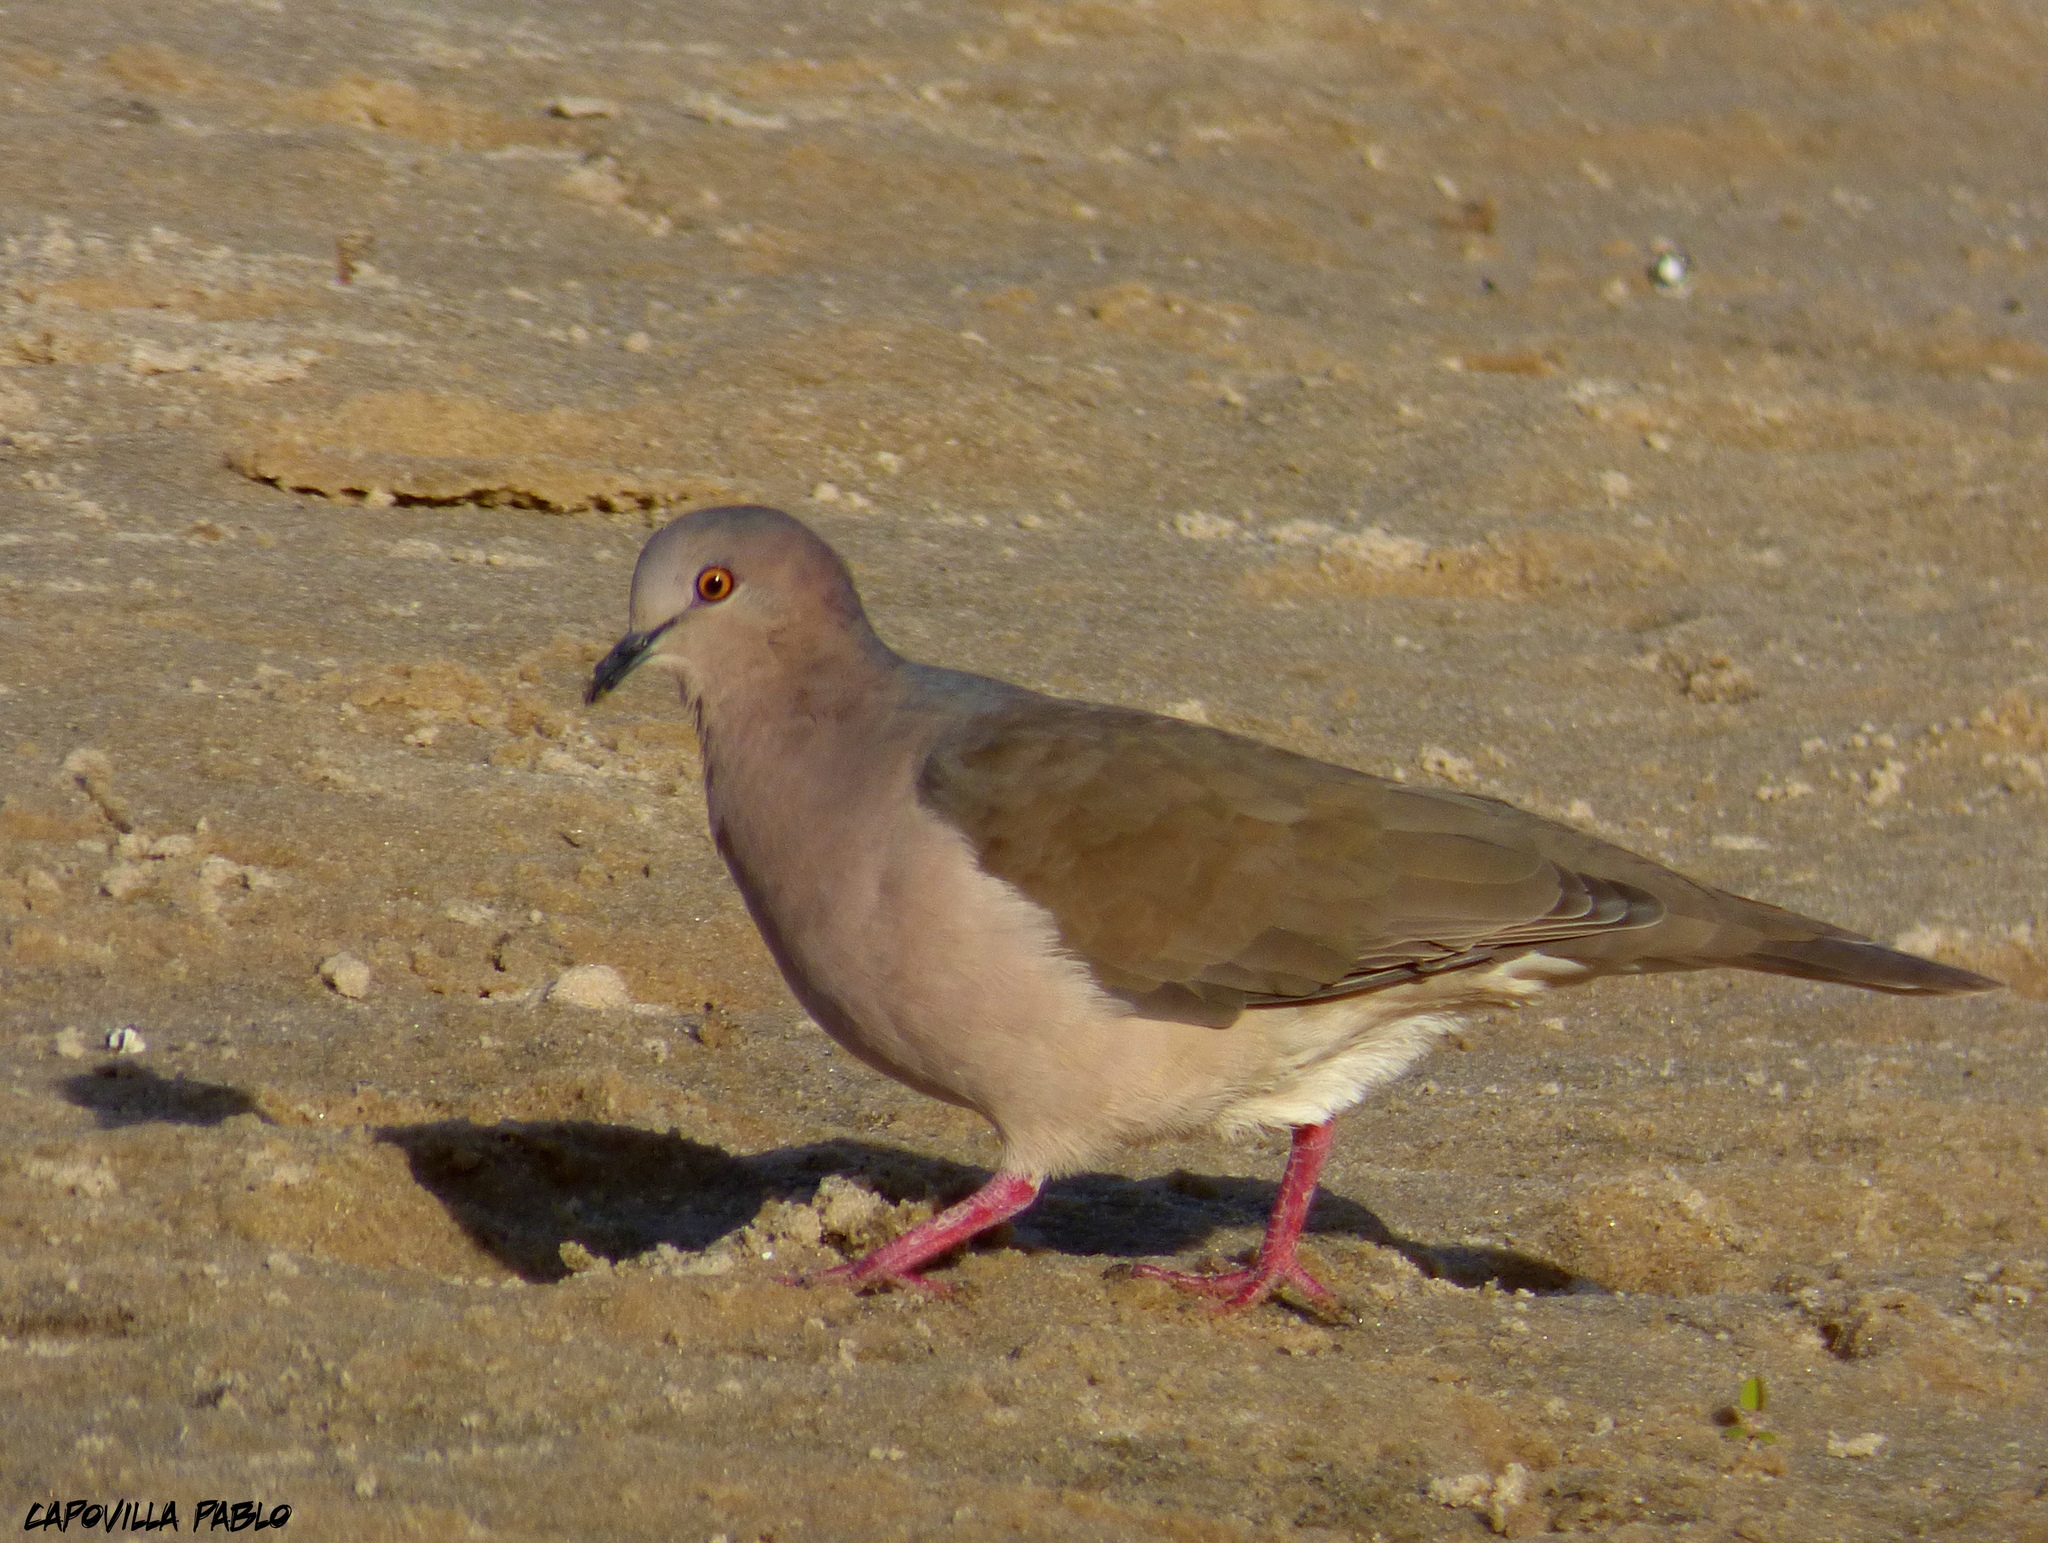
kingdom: Animalia
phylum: Chordata
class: Aves
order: Columbiformes
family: Columbidae
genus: Leptotila
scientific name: Leptotila verreauxi
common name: White-tipped dove
